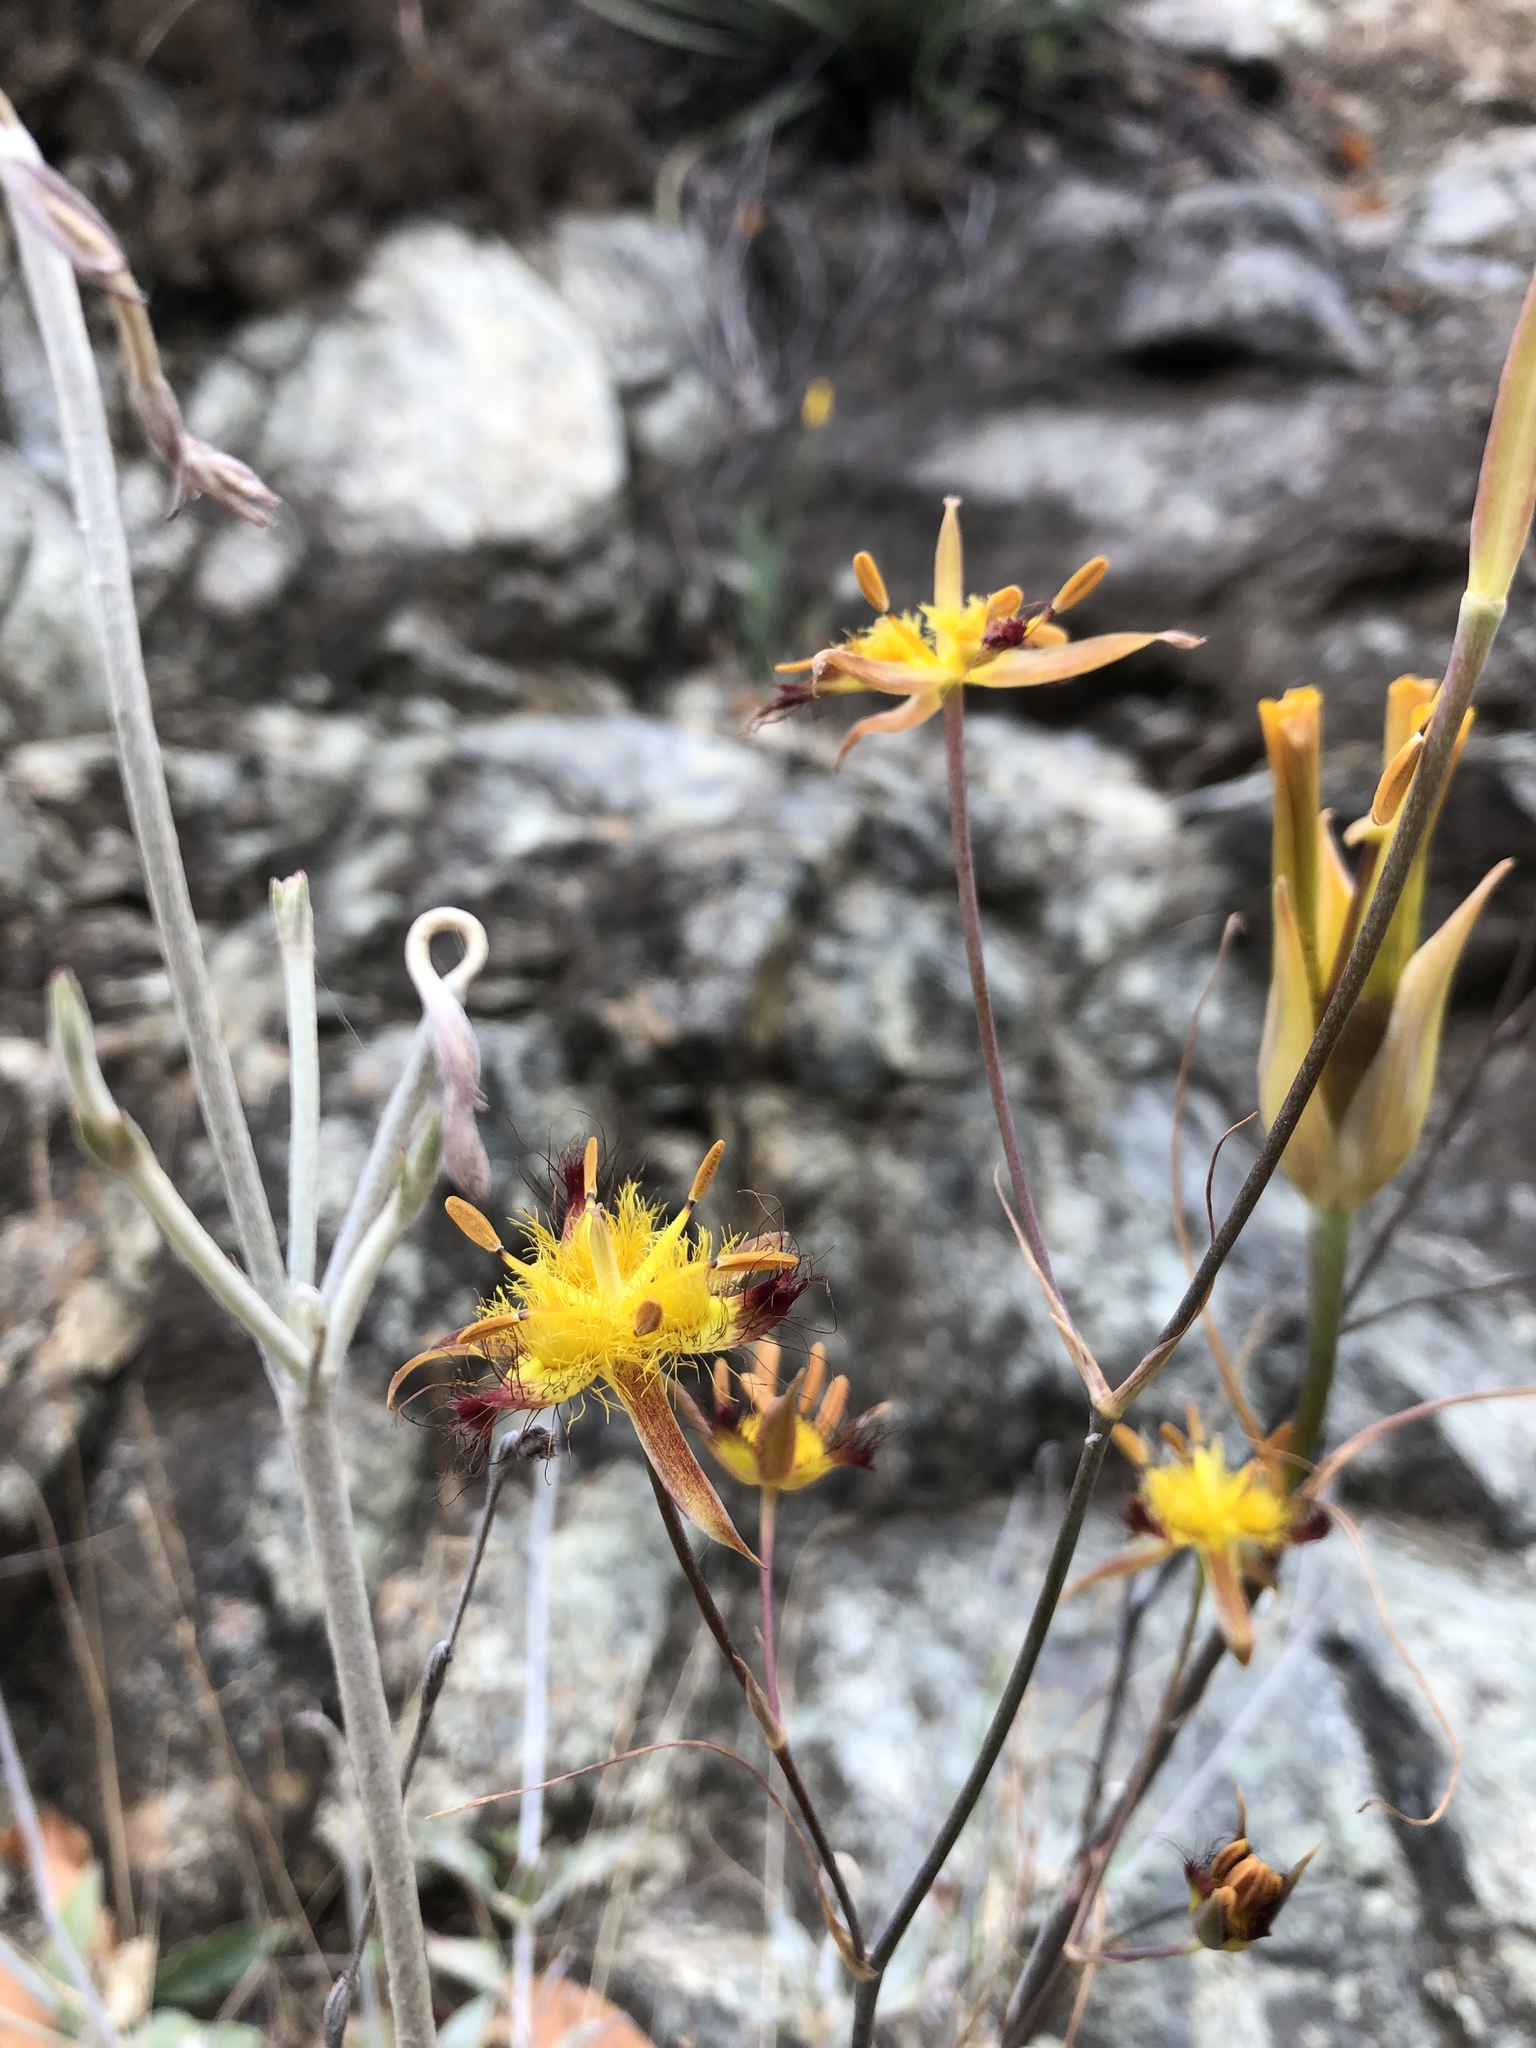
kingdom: Plantae
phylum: Tracheophyta
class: Liliopsida
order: Liliales
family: Liliaceae
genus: Calochortus
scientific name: Calochortus obispoensis
